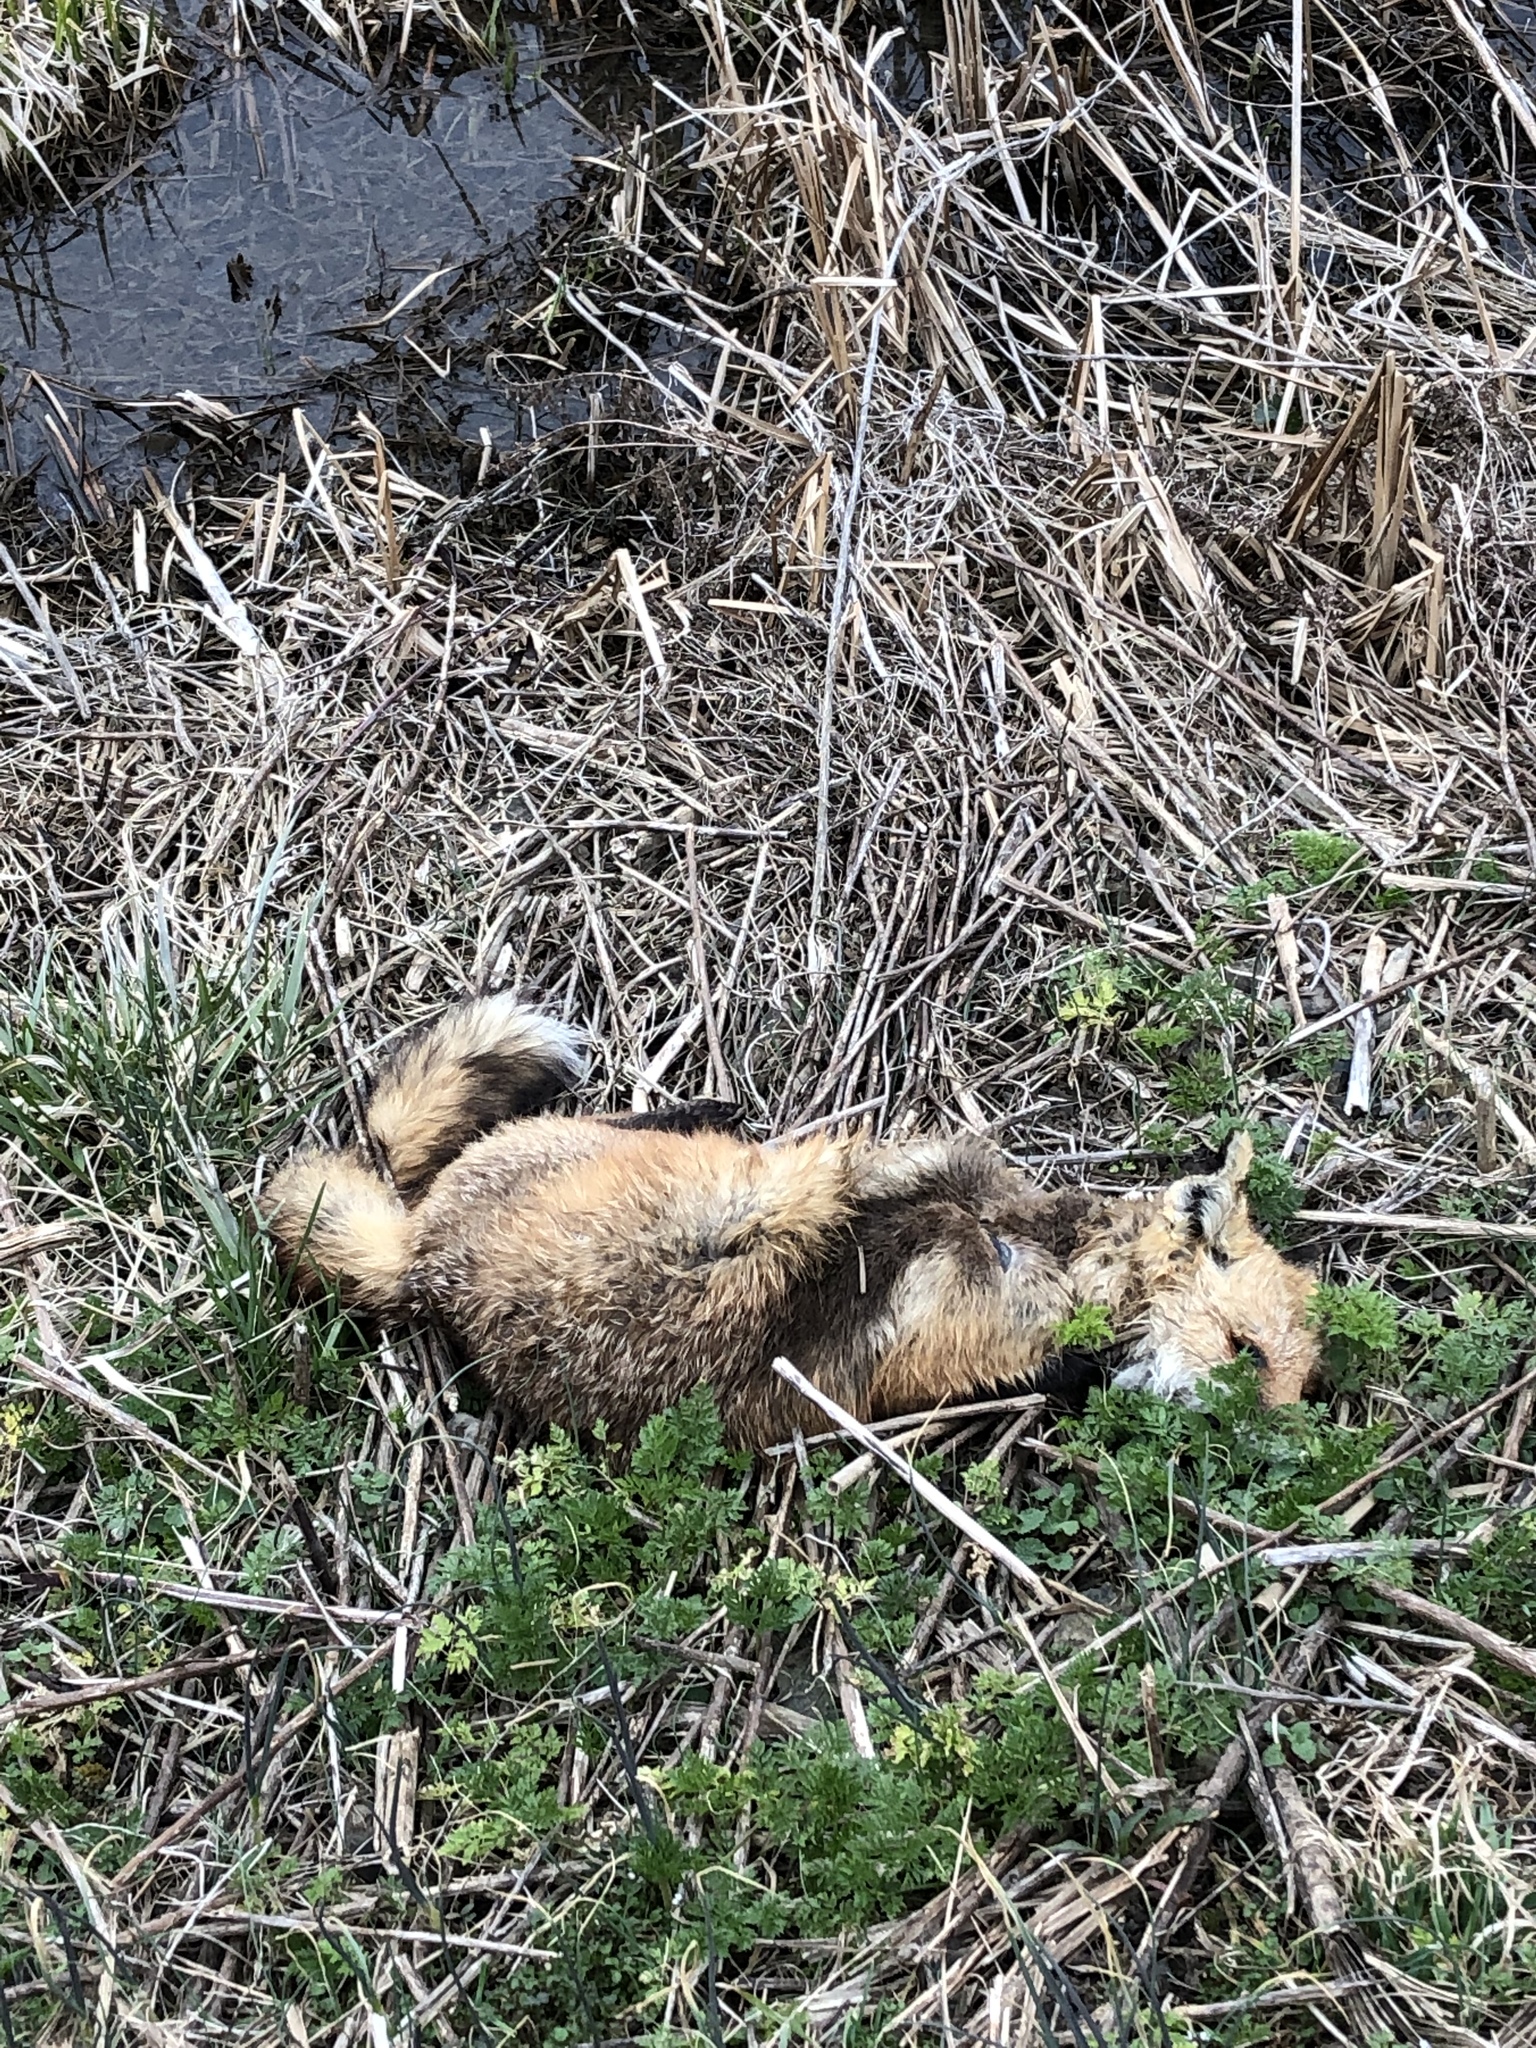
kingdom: Animalia
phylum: Chordata
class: Mammalia
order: Carnivora
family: Canidae
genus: Vulpes
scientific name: Vulpes vulpes
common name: Red fox
